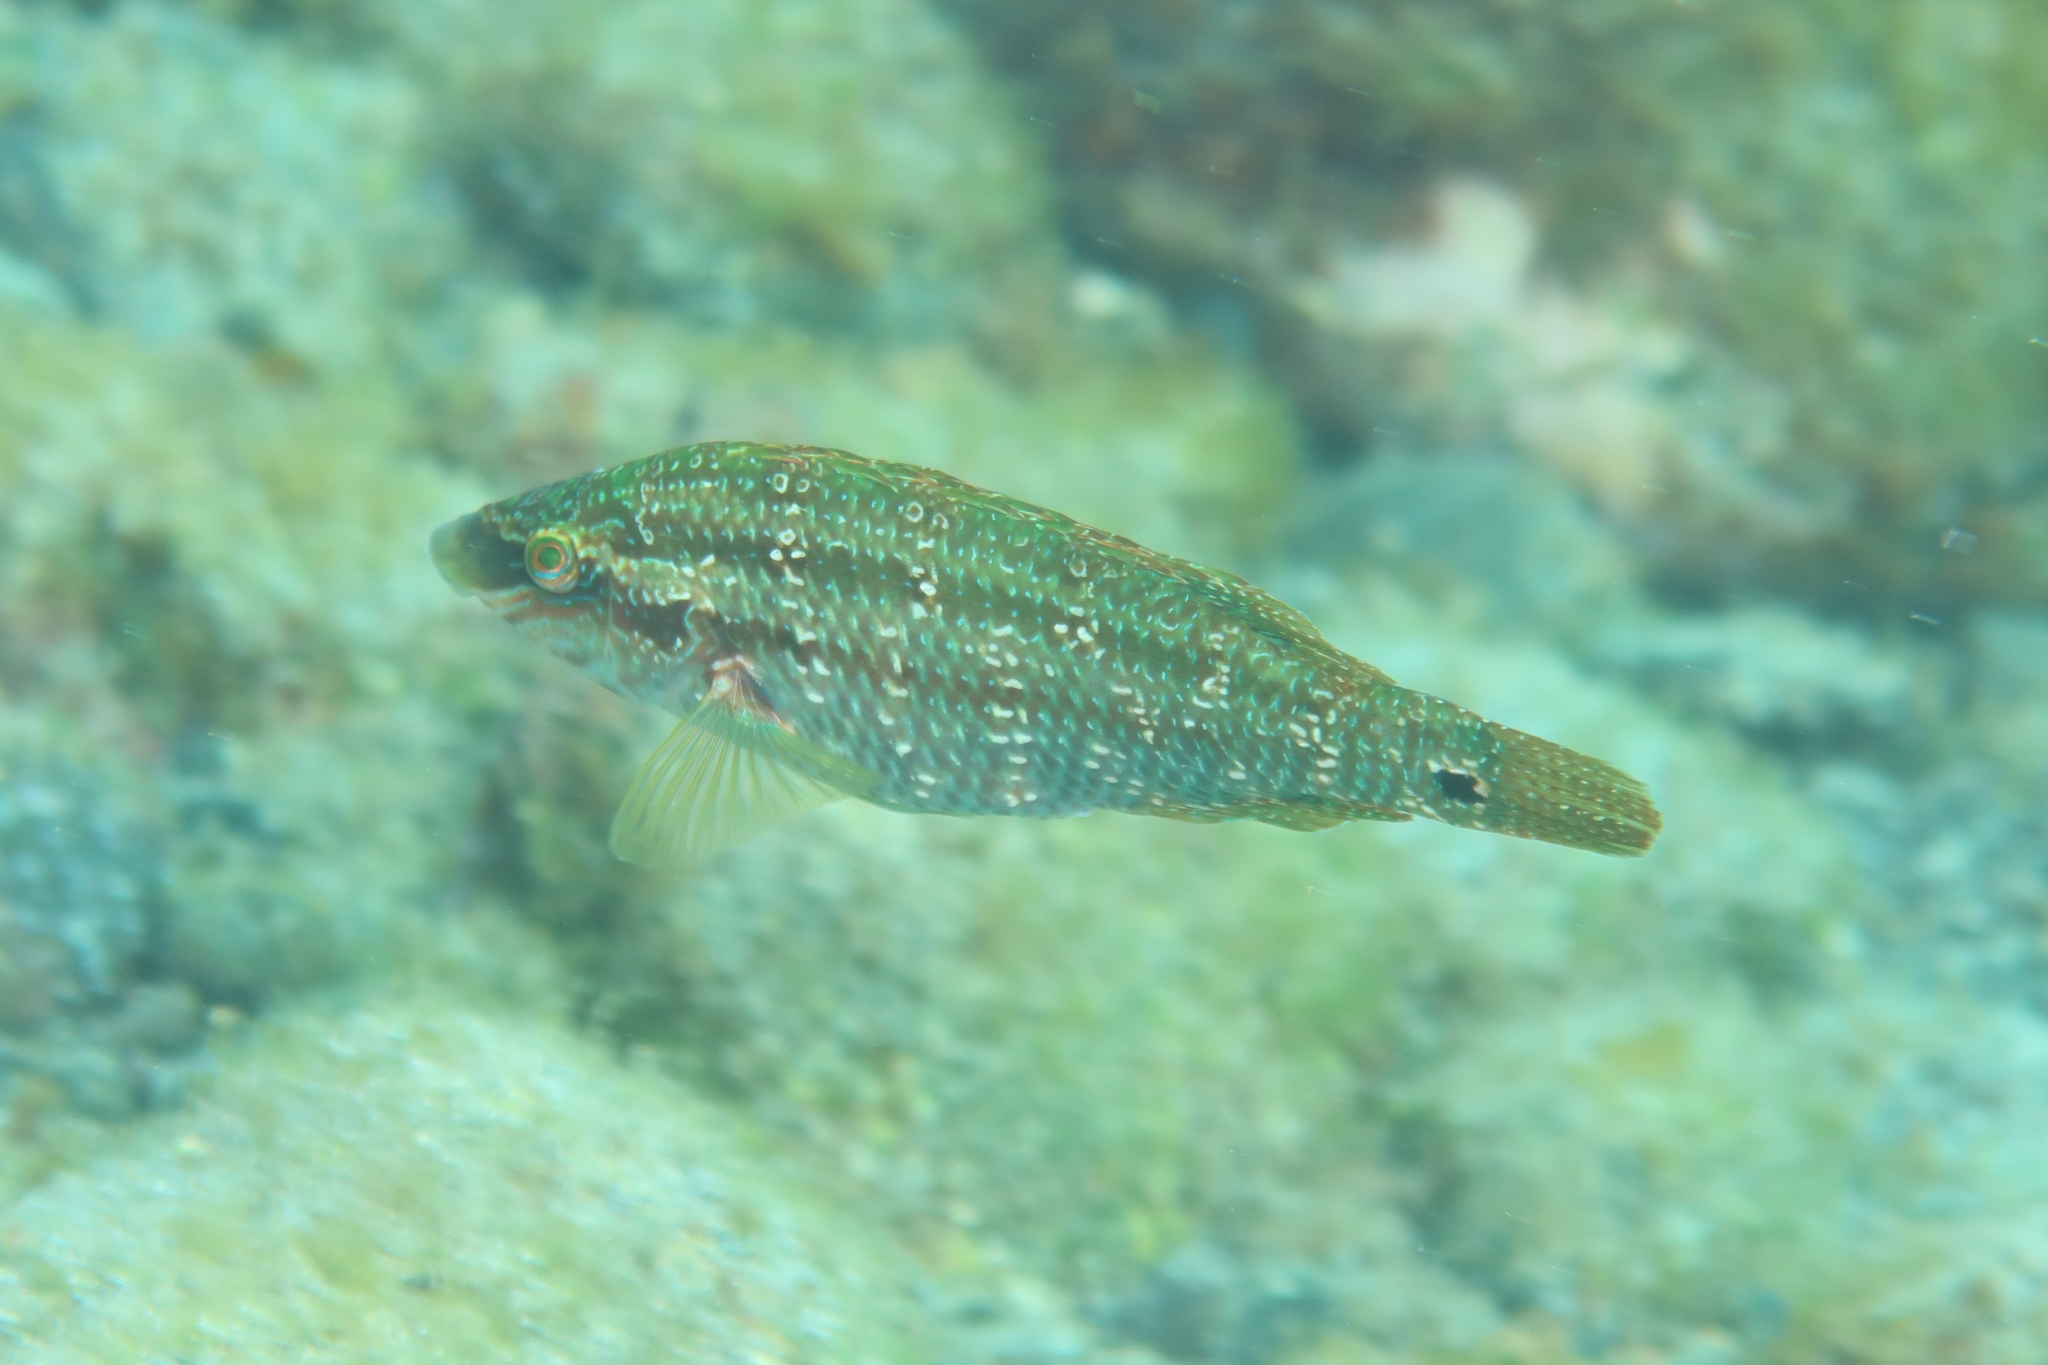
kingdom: Animalia
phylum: Chordata
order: Perciformes
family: Labridae
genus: Symphodus
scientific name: Symphodus trutta
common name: Emerald wrasse
